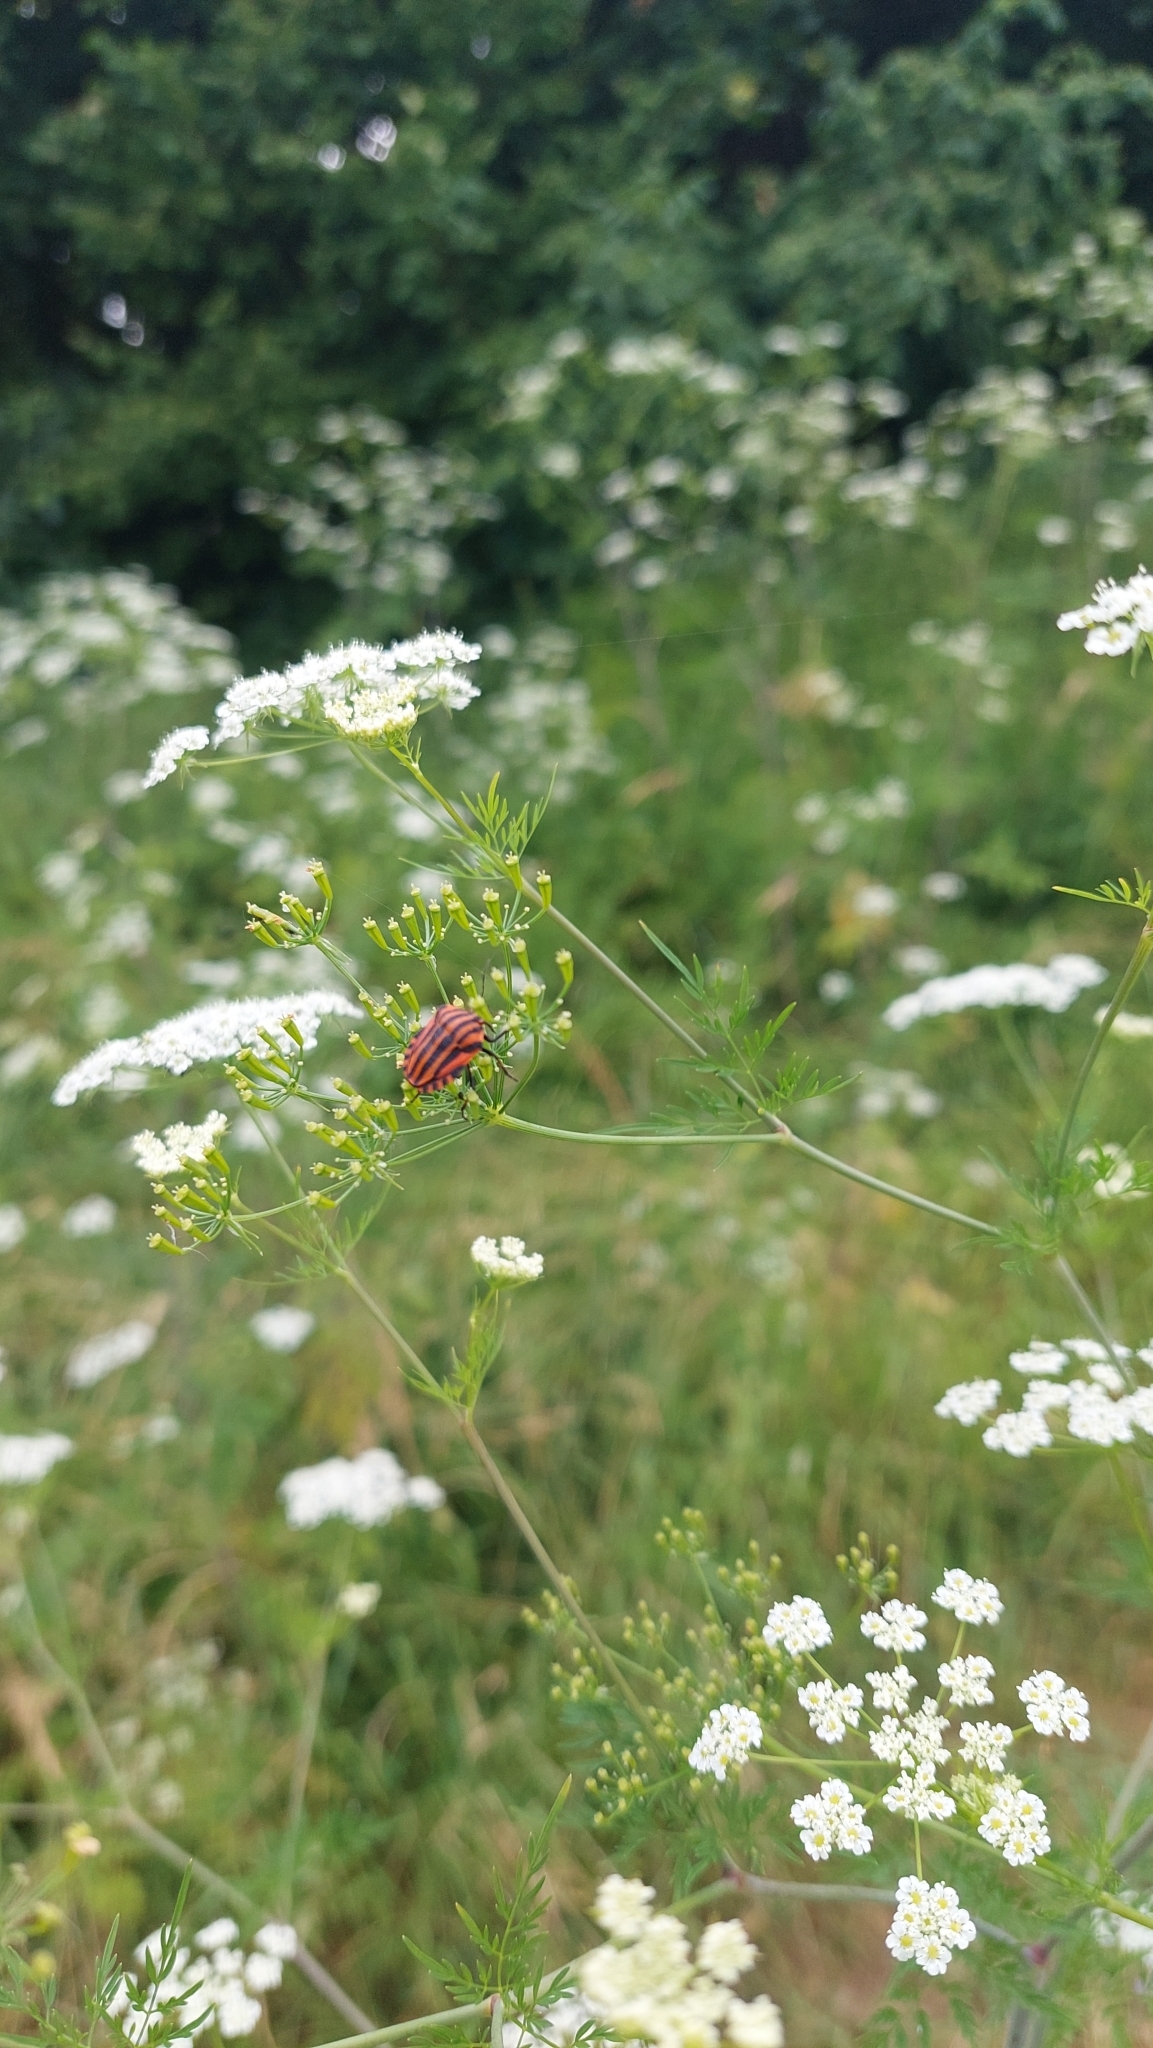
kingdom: Animalia
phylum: Arthropoda
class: Insecta
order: Hemiptera
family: Pentatomidae
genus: Graphosoma
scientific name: Graphosoma italicum
